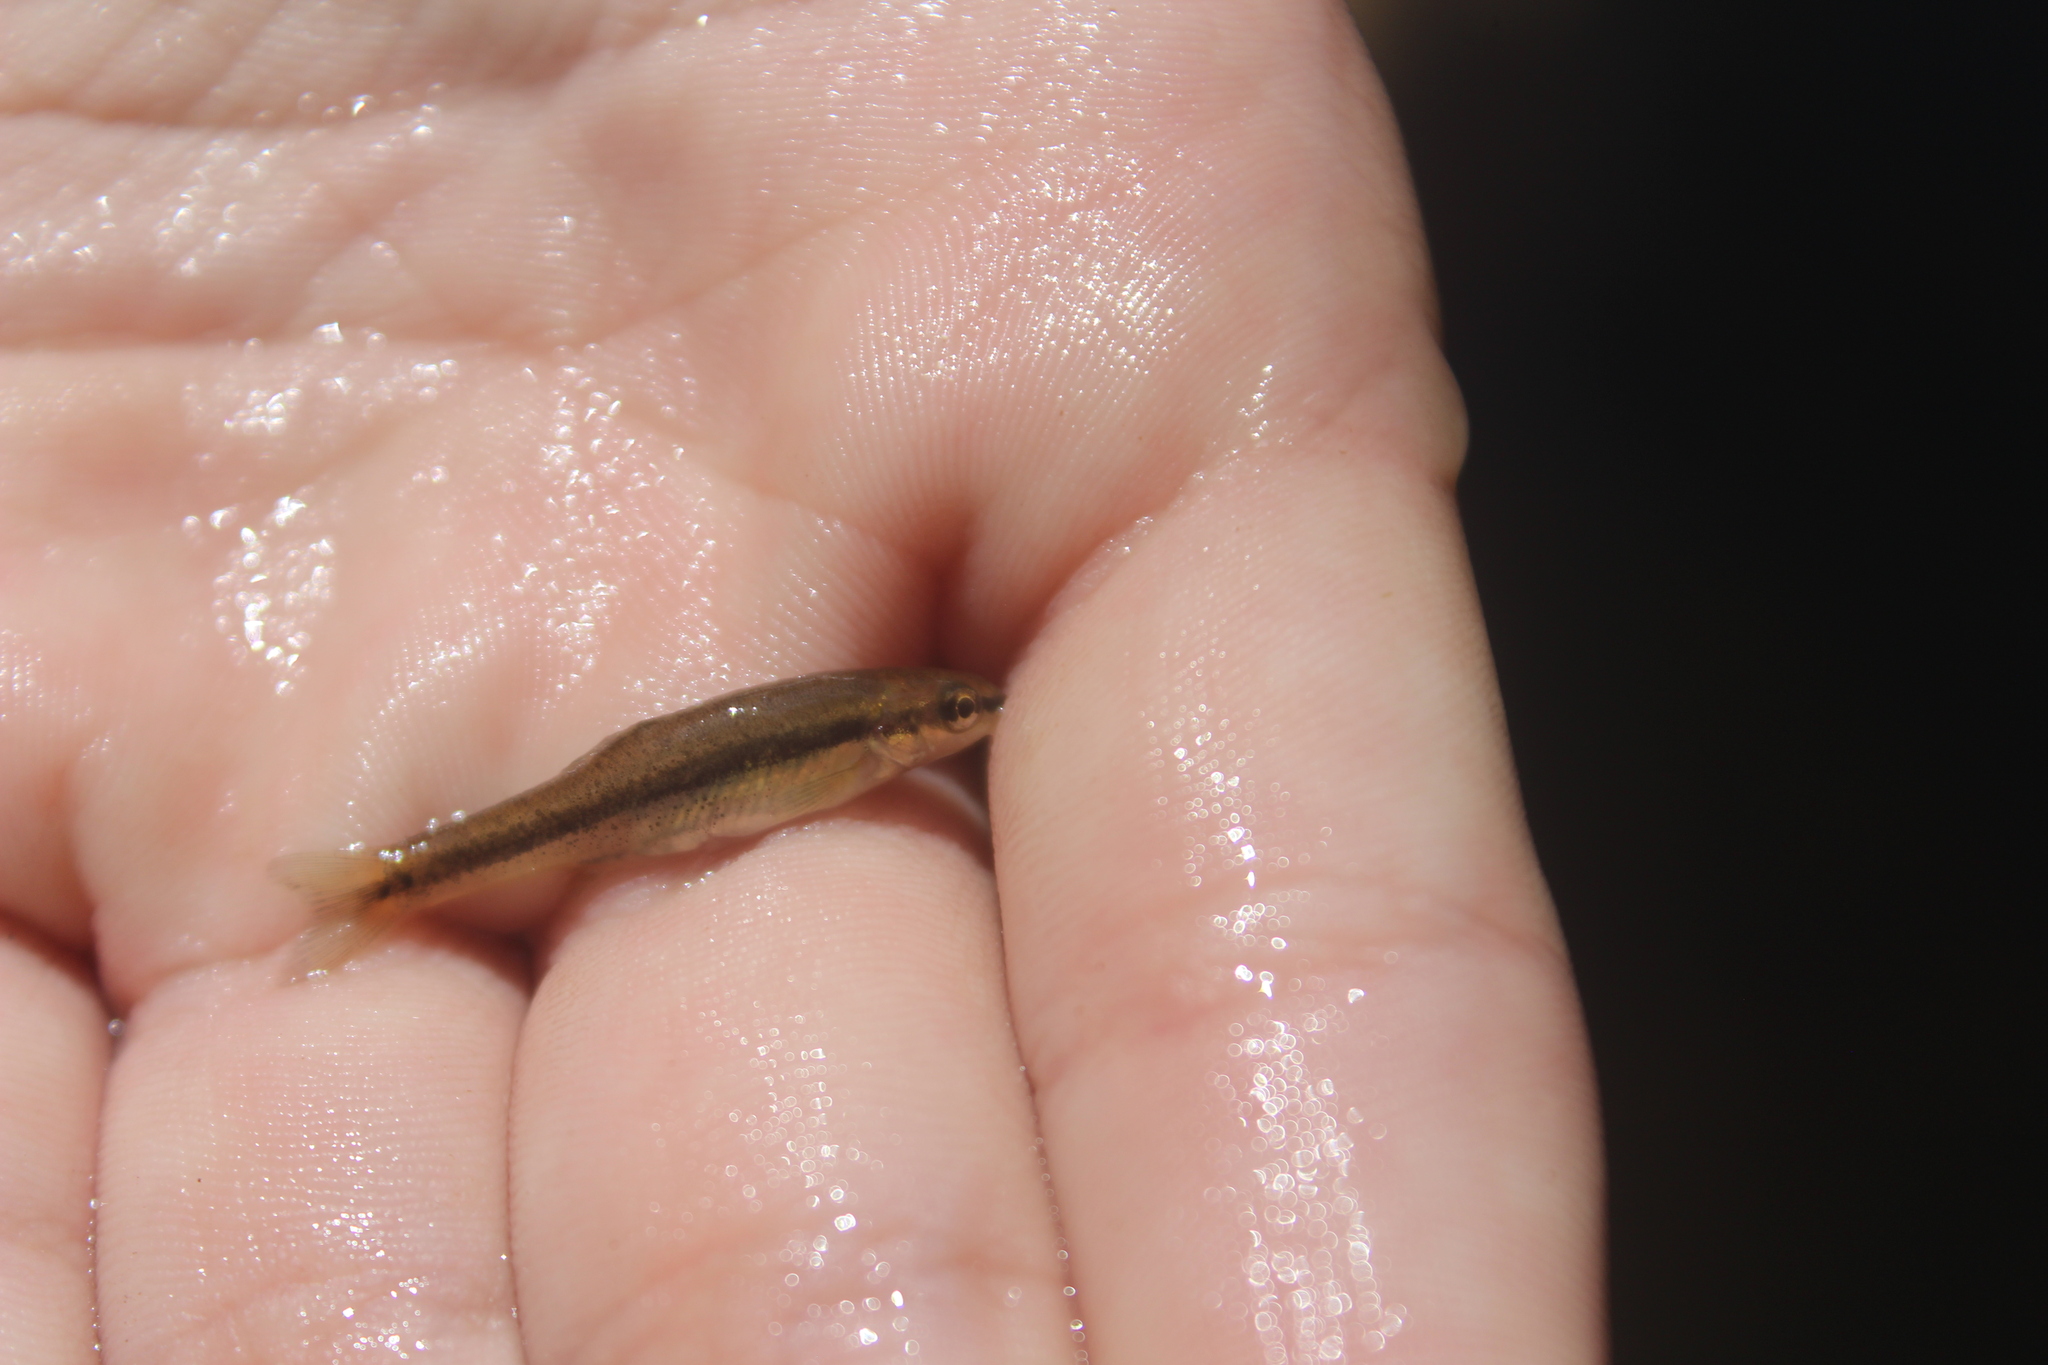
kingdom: Animalia
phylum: Chordata
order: Cypriniformes
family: Cyprinidae
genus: Rhinichthys
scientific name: Rhinichthys atratulus
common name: Eastern blacknose dace
